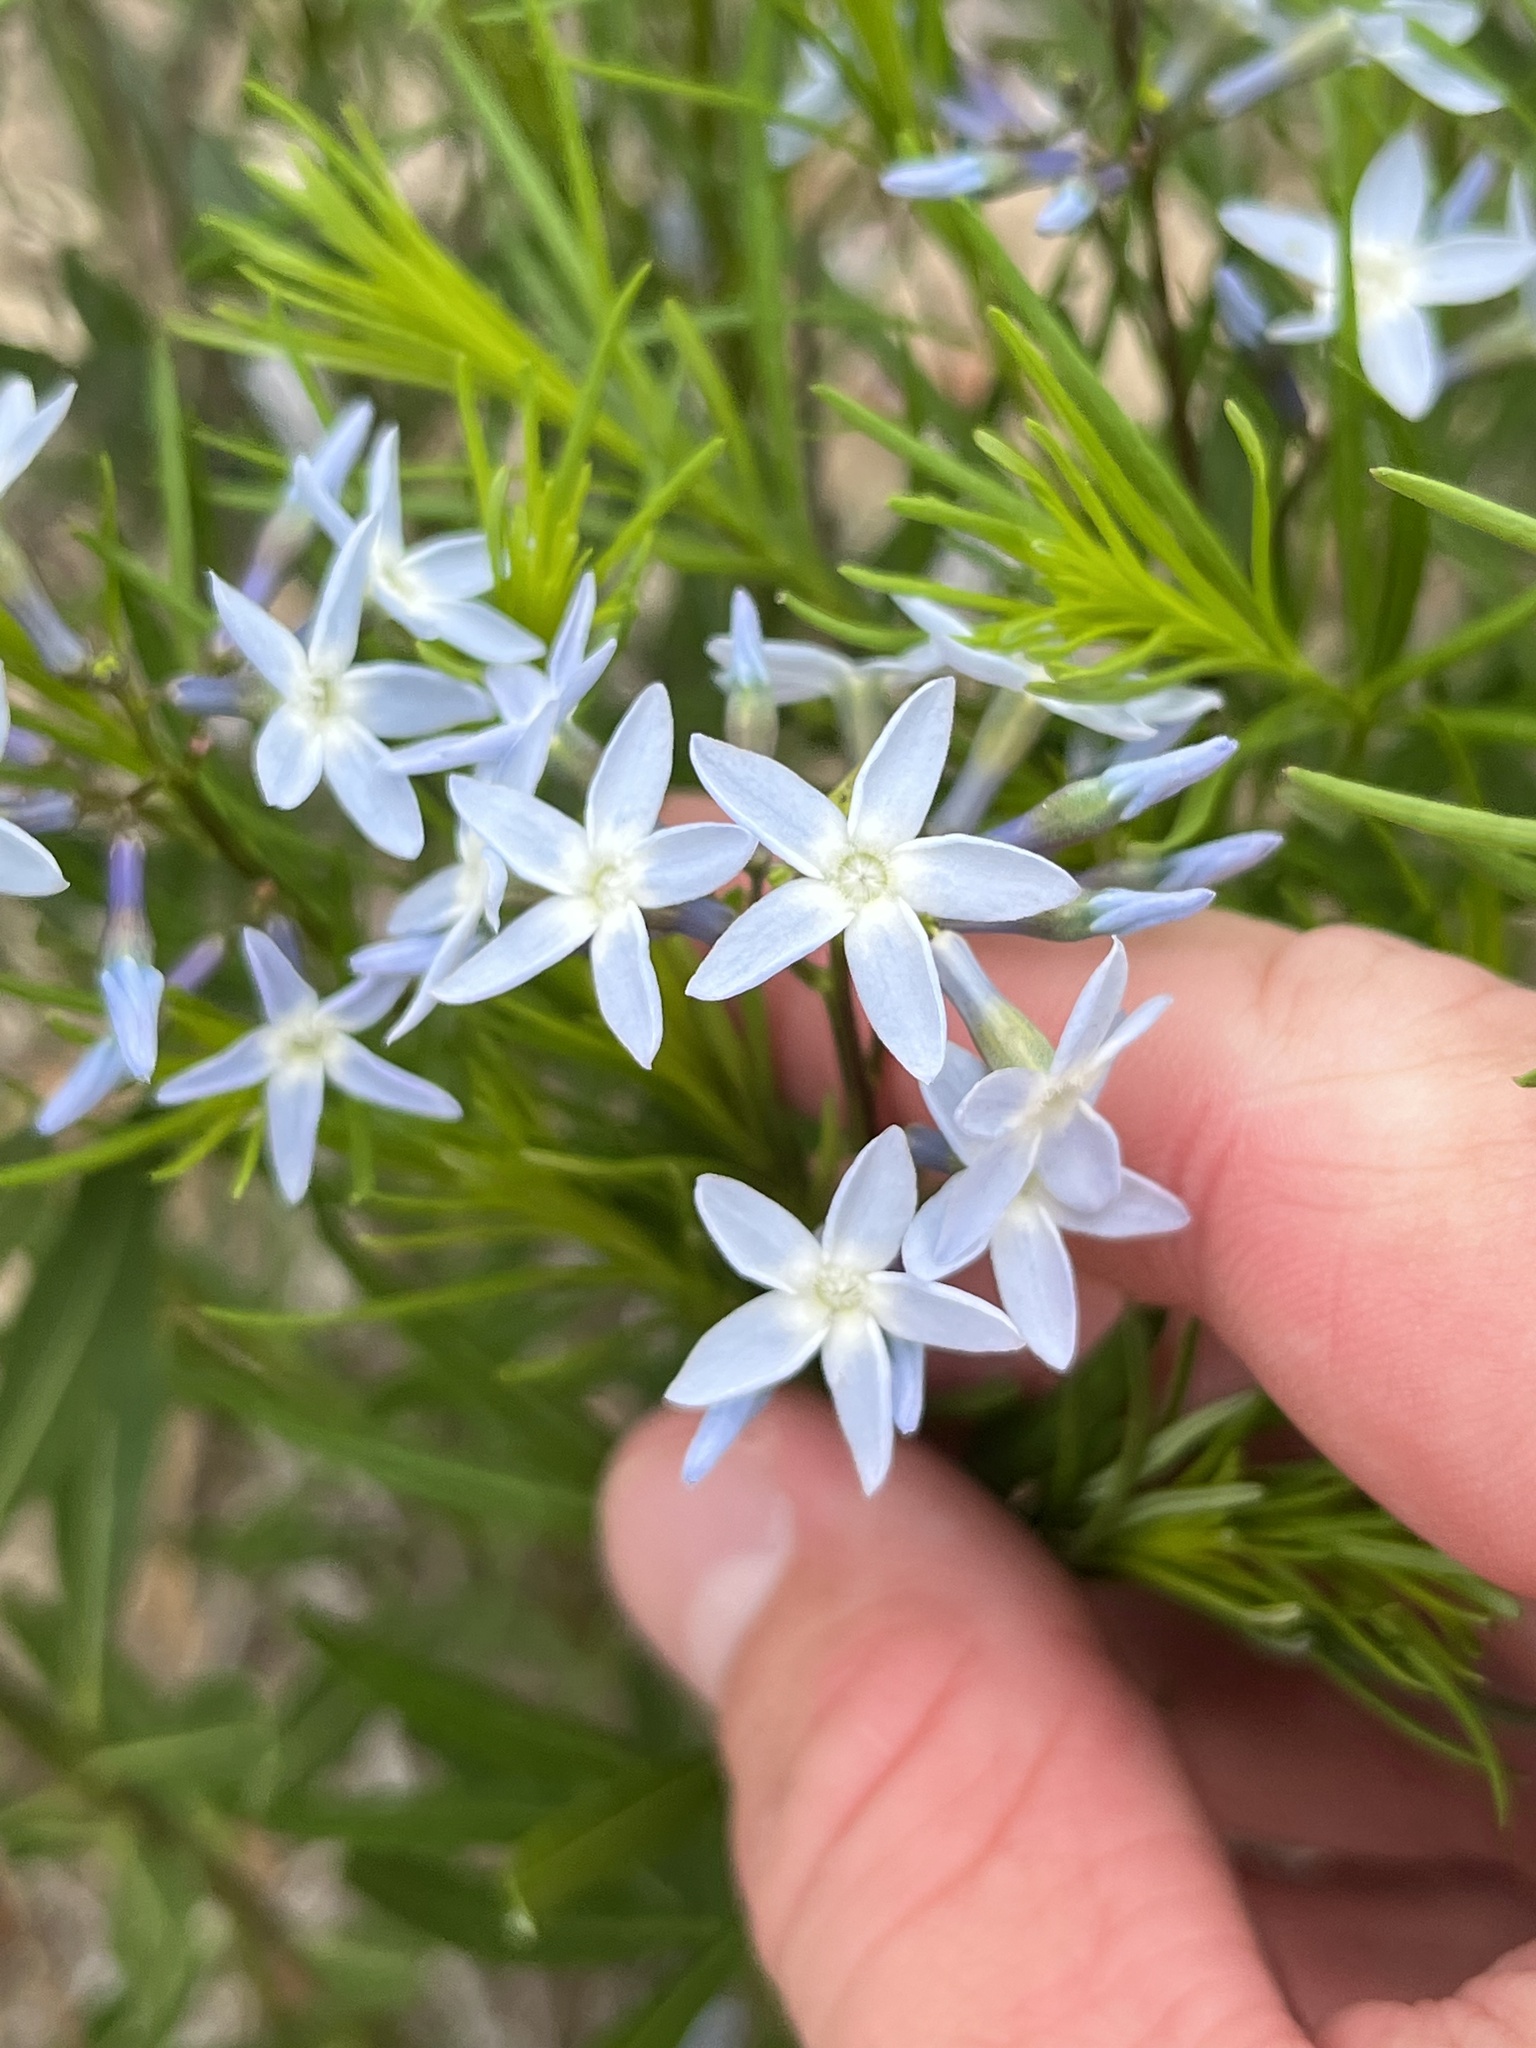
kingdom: Plantae
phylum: Tracheophyta
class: Magnoliopsida
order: Gentianales
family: Apocynaceae
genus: Amsonia
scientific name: Amsonia ciliata
